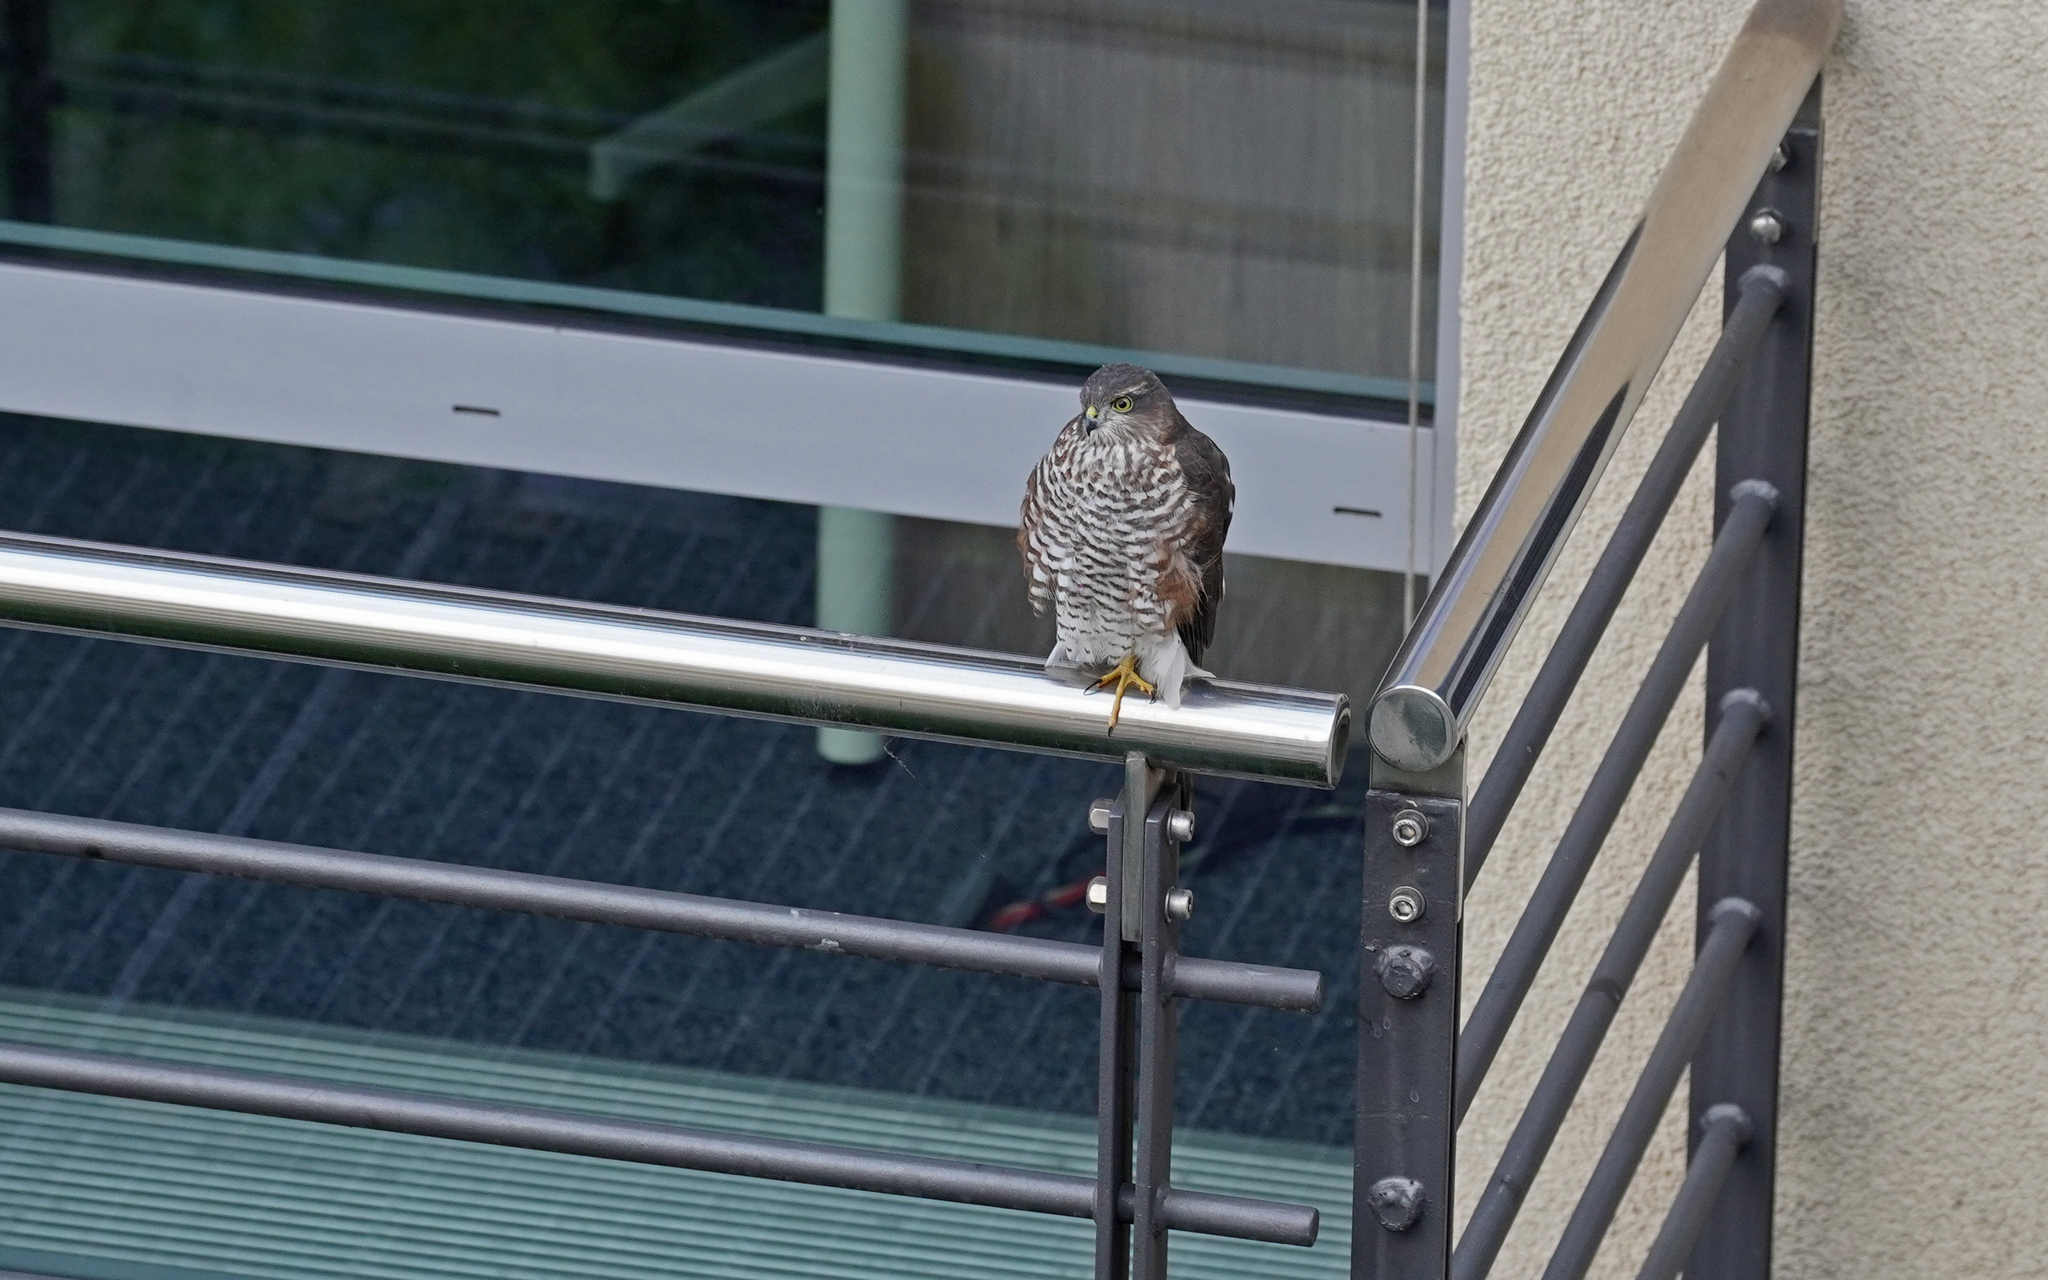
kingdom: Animalia
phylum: Chordata
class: Aves
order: Accipitriformes
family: Accipitridae
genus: Accipiter
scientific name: Accipiter nisus
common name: Eurasian sparrowhawk
